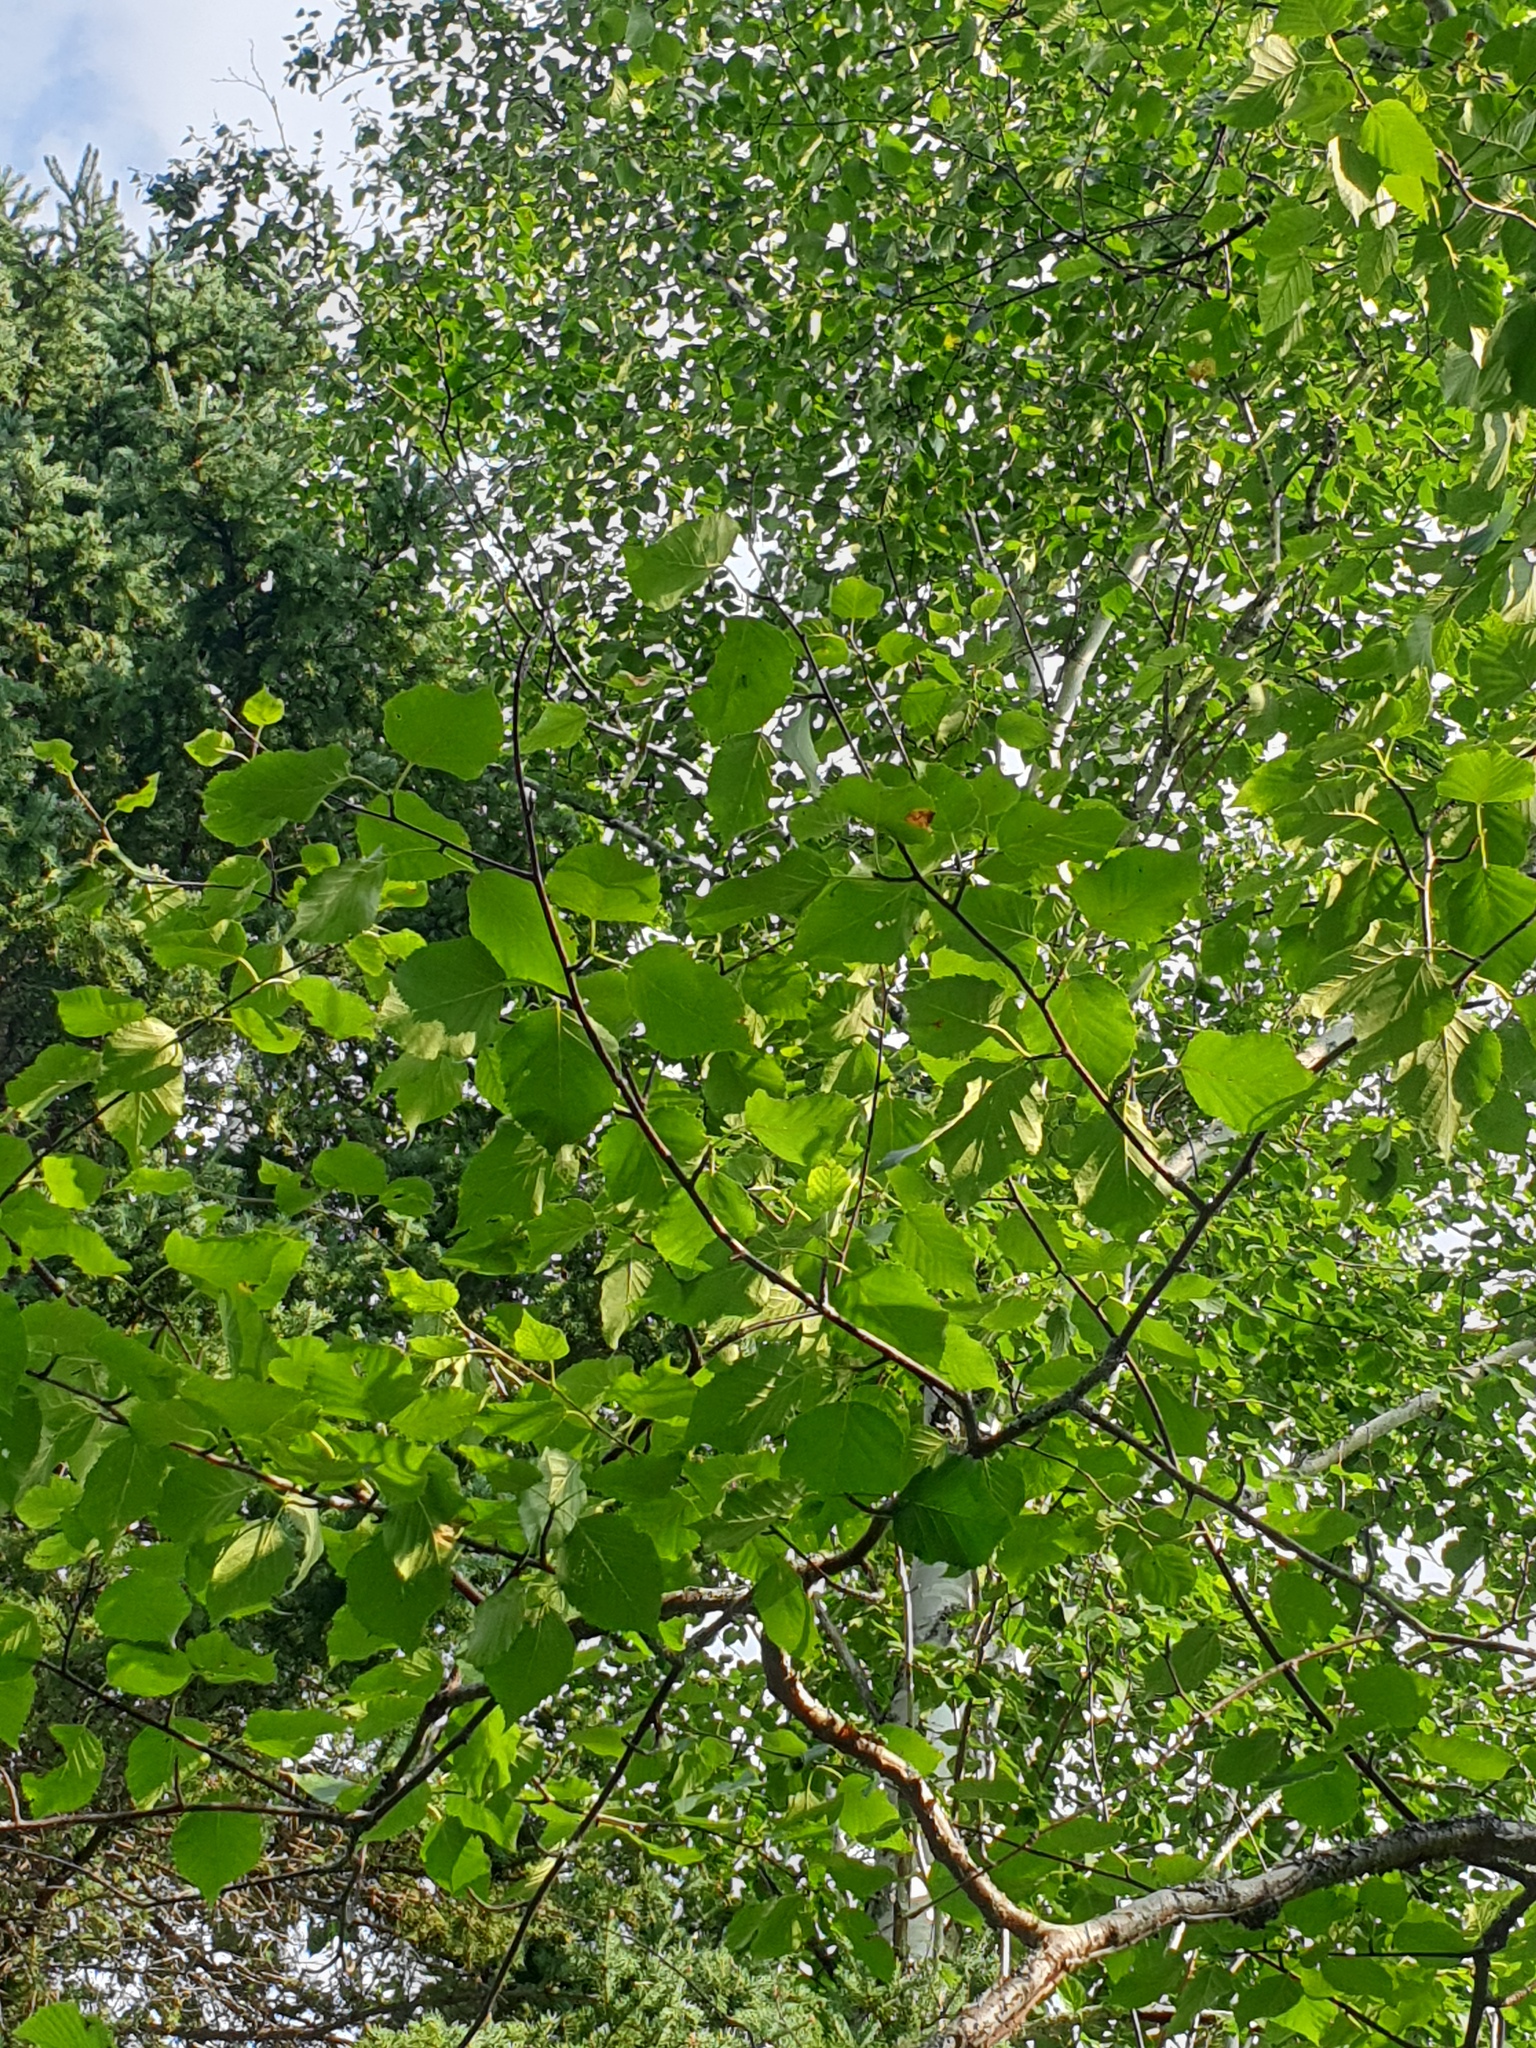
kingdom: Plantae
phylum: Tracheophyta
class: Magnoliopsida
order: Fagales
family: Betulaceae
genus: Betula
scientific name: Betula papyrifera
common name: Paper birch
